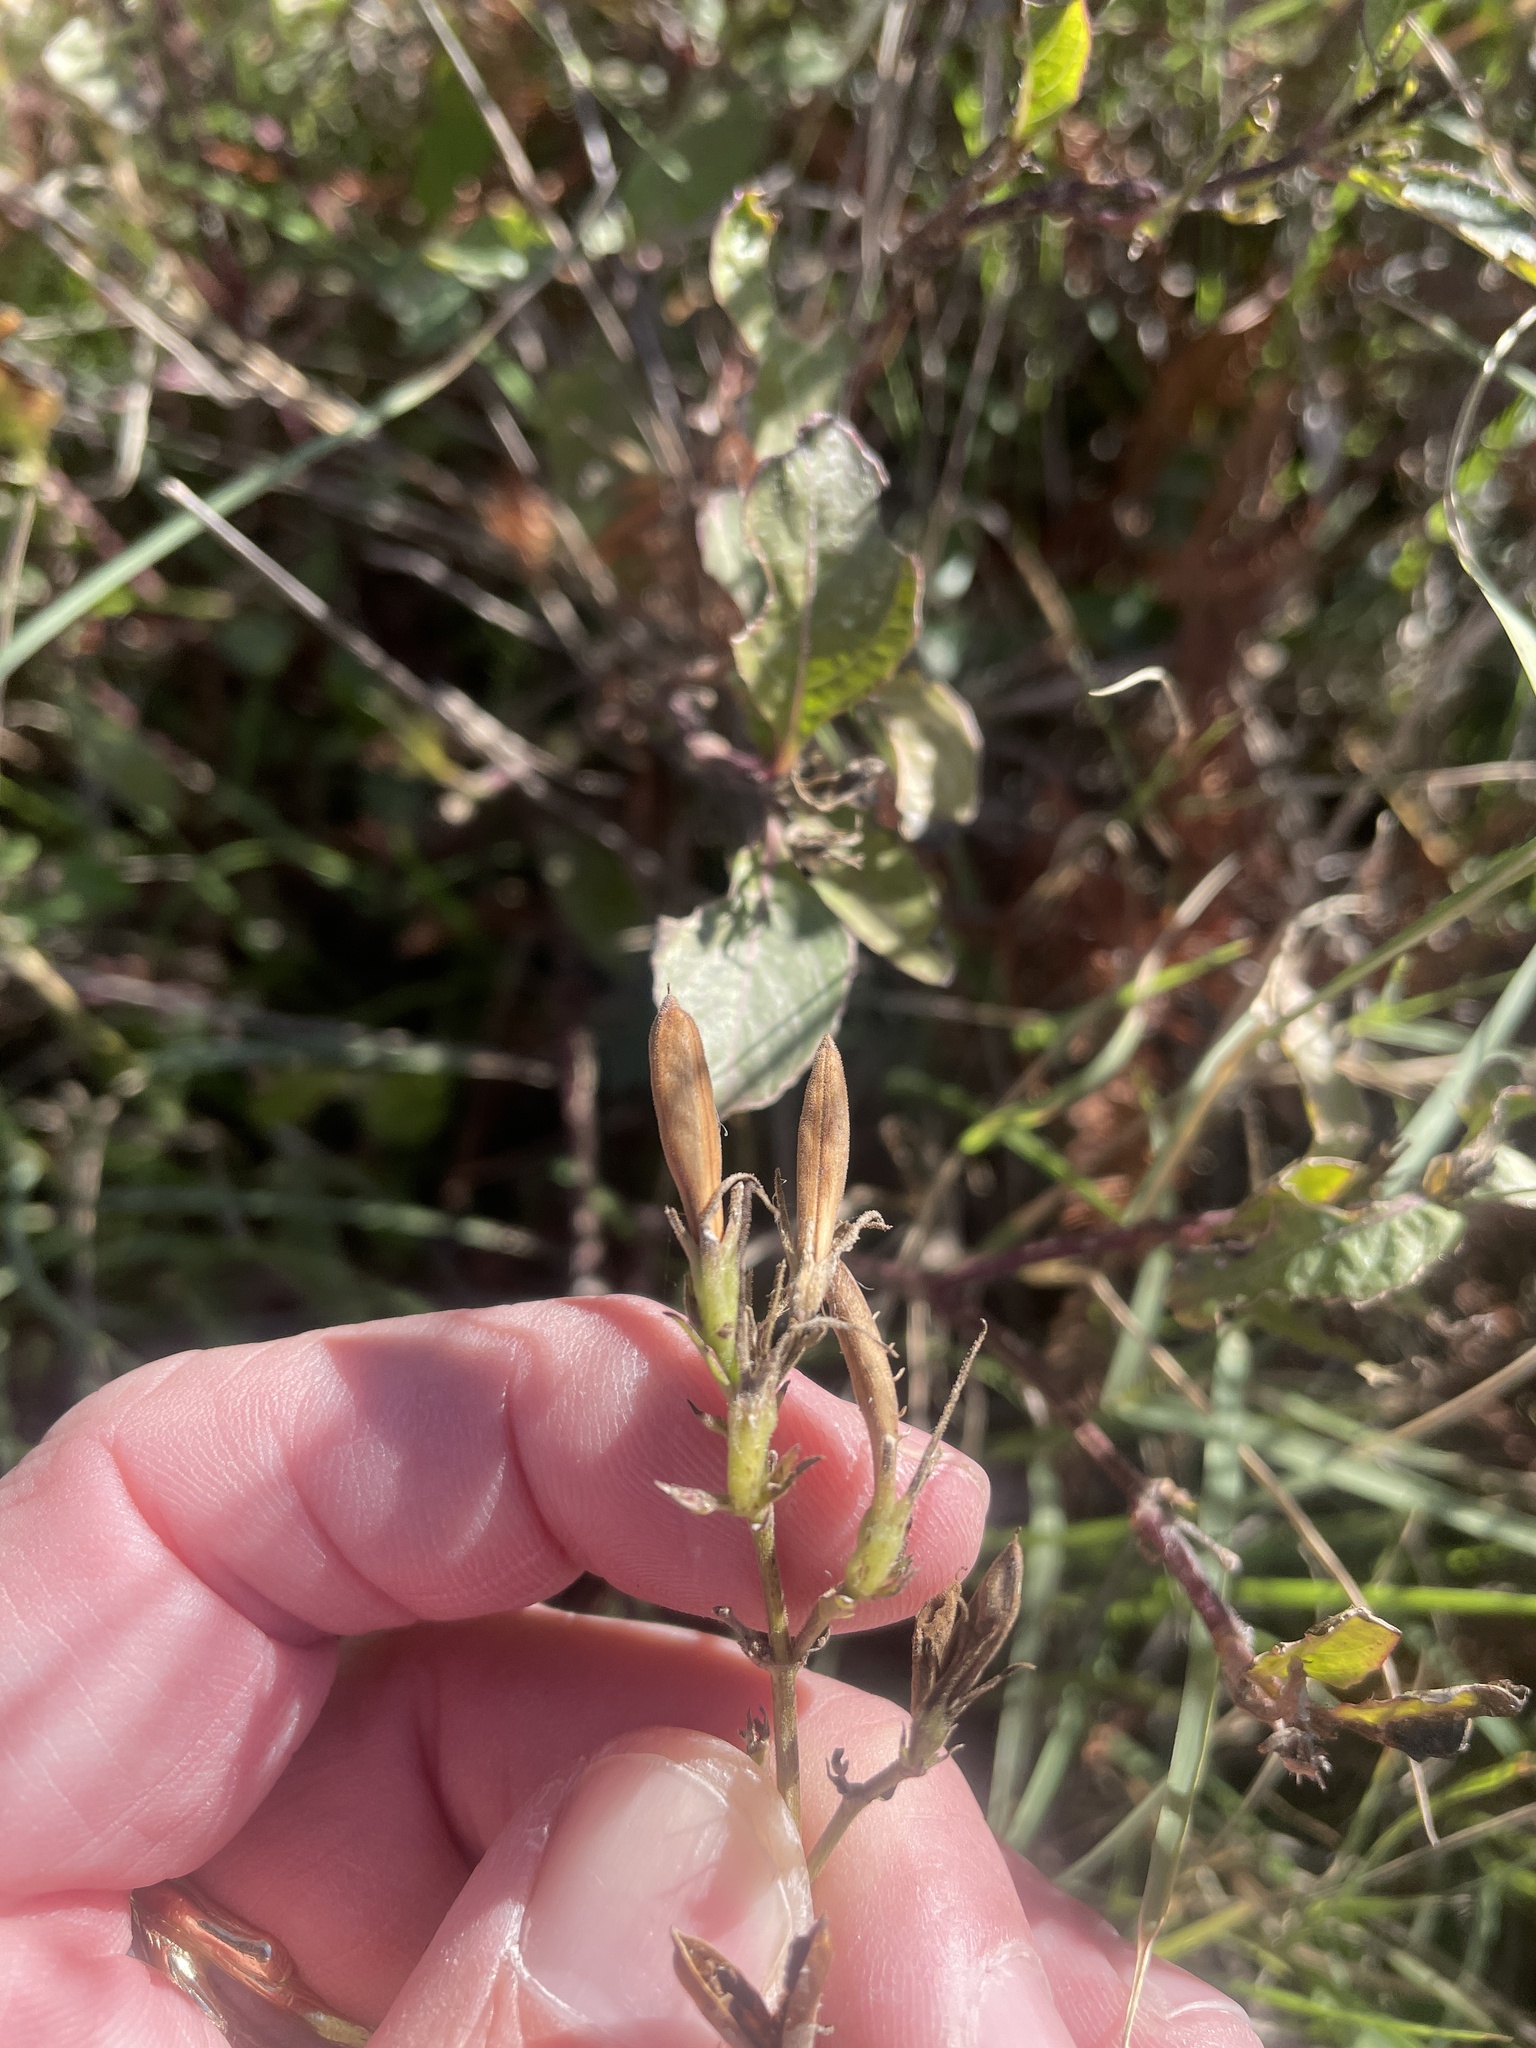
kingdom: Plantae
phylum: Tracheophyta
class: Magnoliopsida
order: Lamiales
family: Acanthaceae
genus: Ruellia
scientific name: Ruellia ciliatiflora
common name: Hairyflower wild petunia
